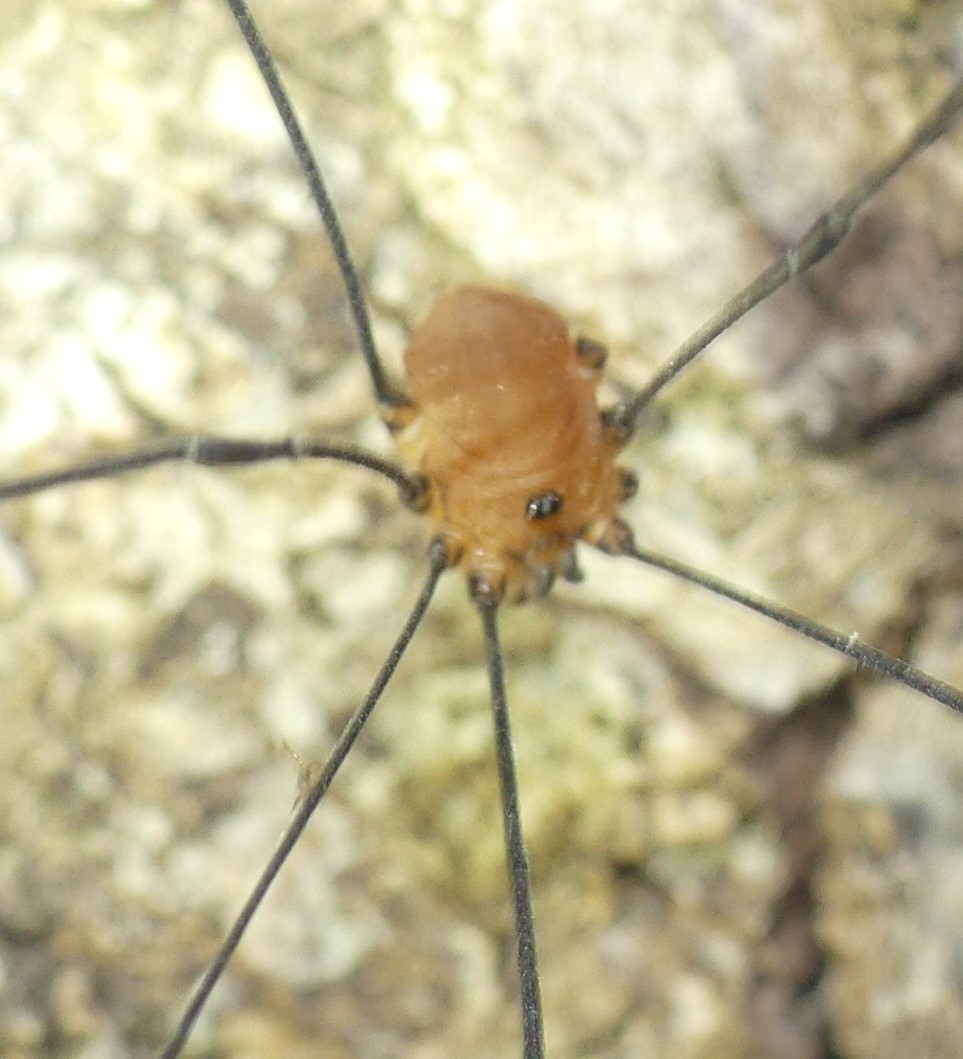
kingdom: Animalia
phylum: Arthropoda
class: Arachnida
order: Opiliones
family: Sclerosomatidae
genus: Leiobunum
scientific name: Leiobunum rotundum
